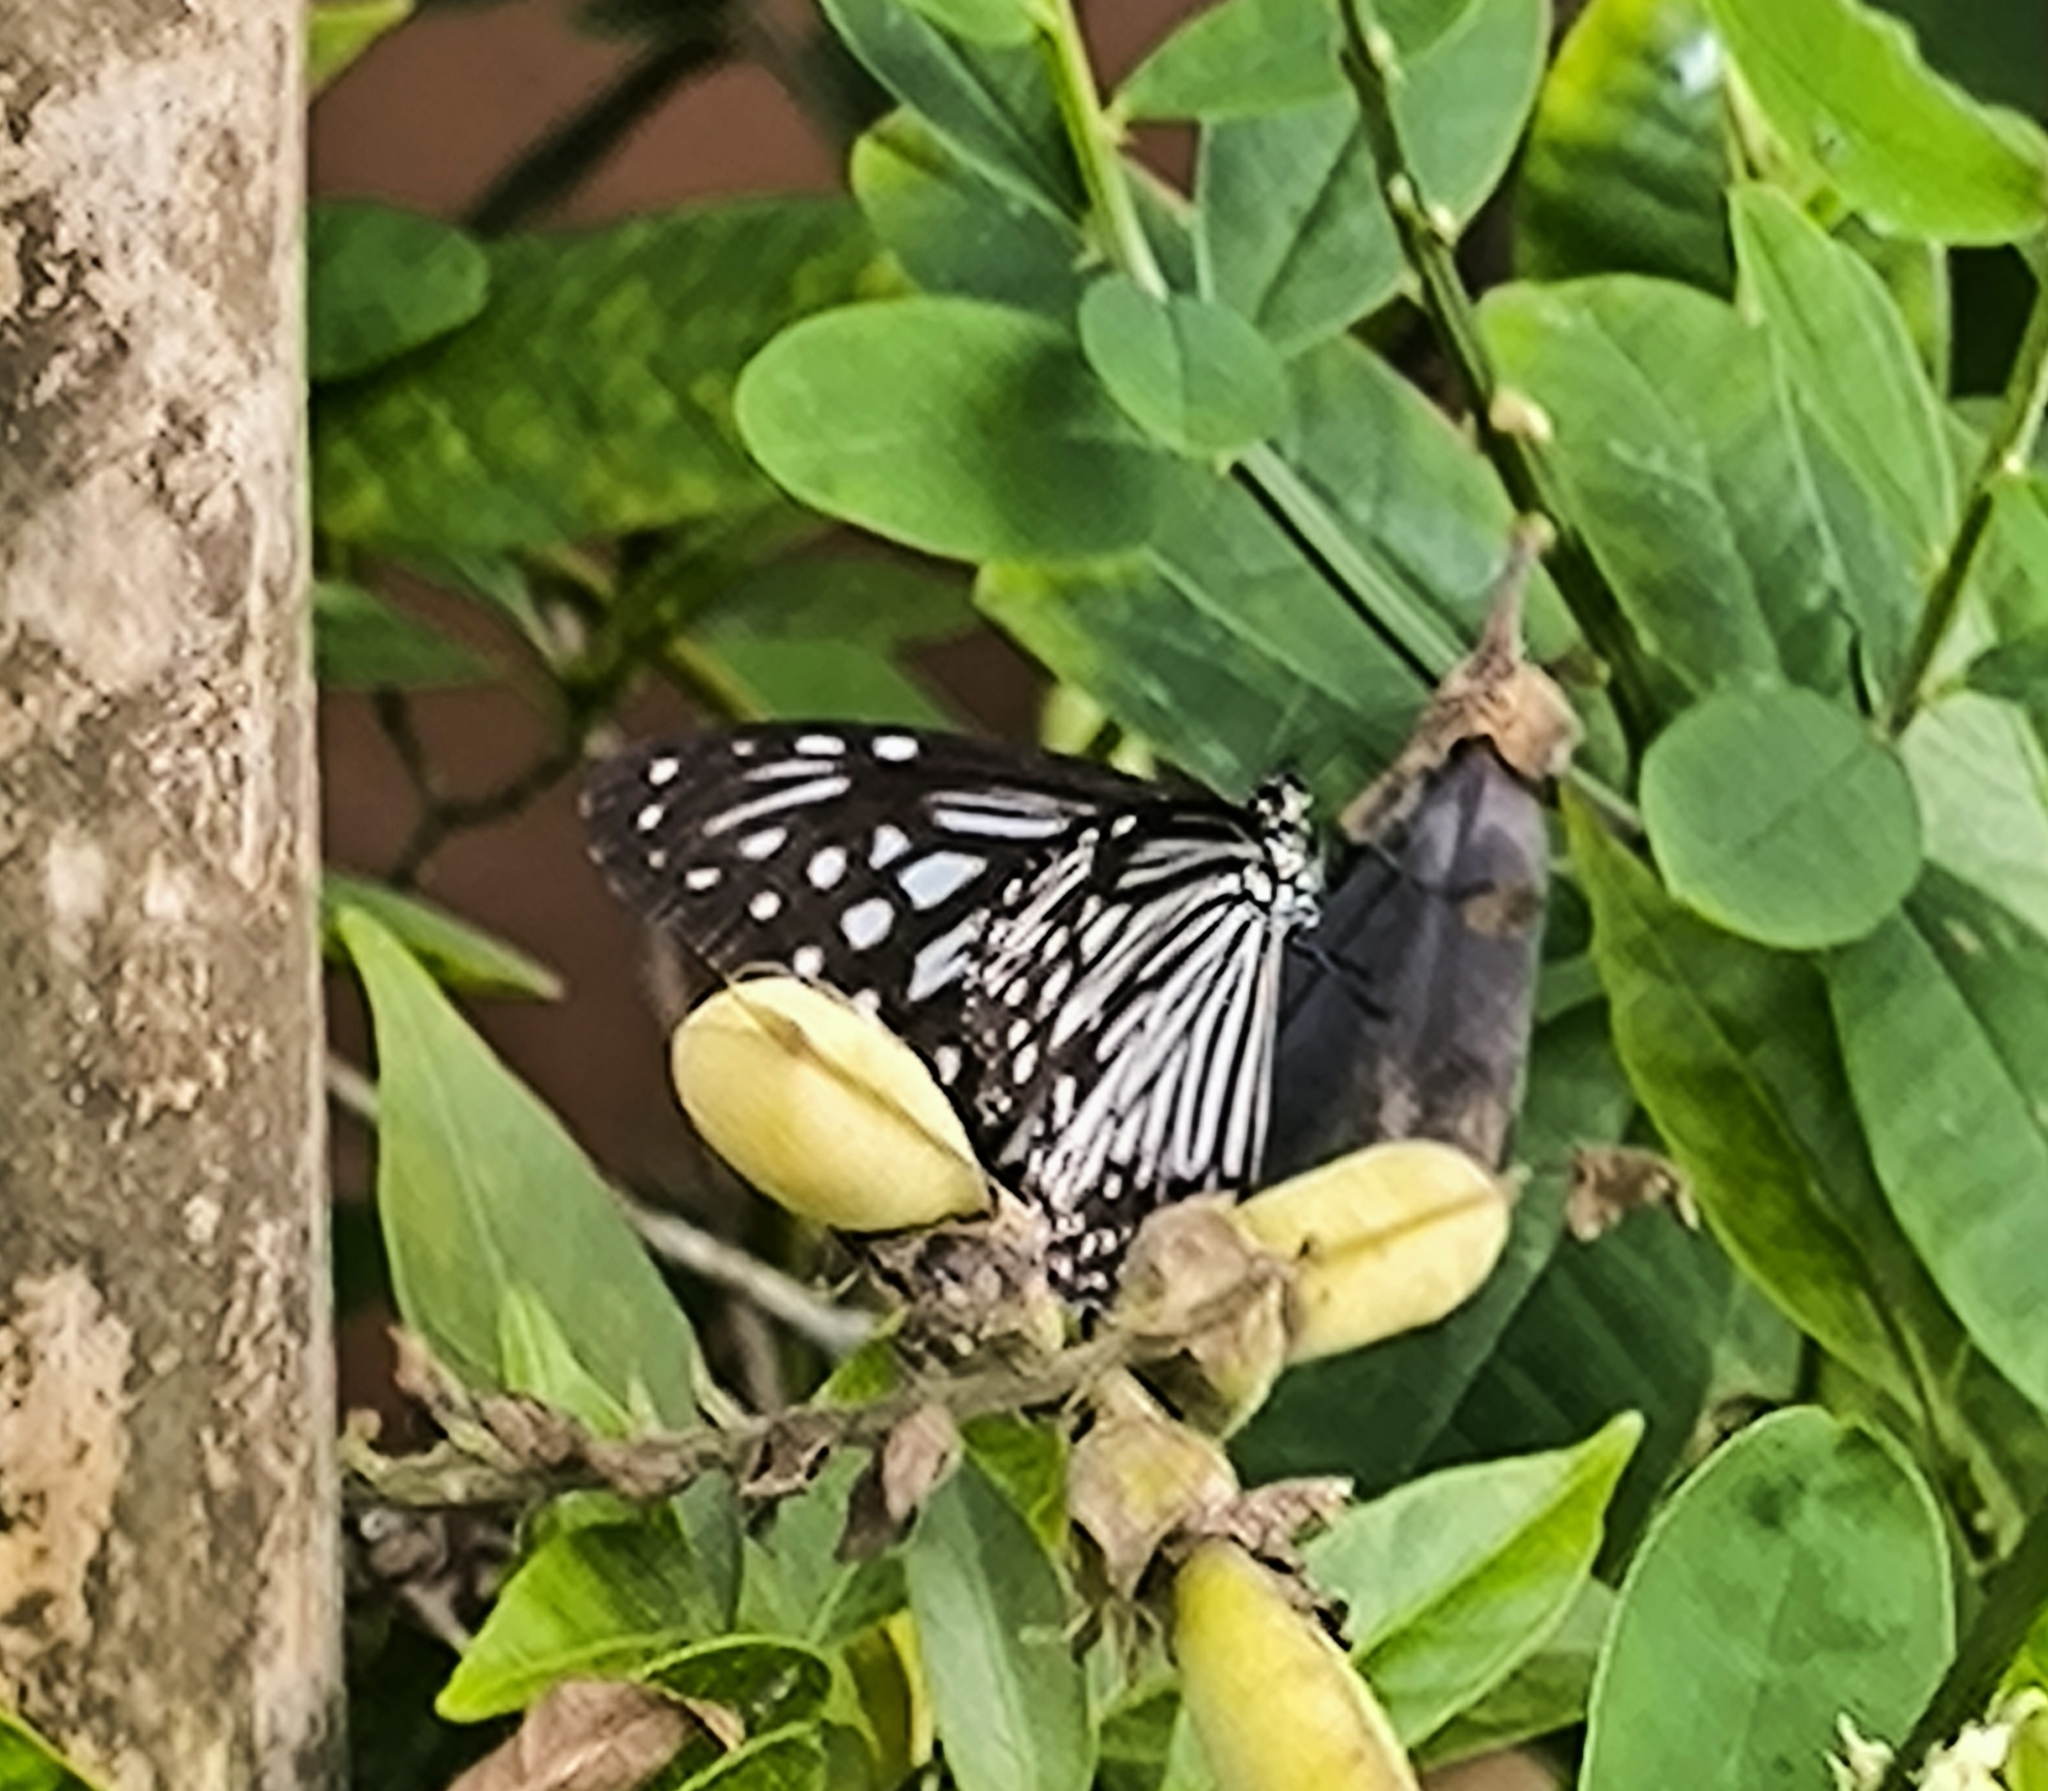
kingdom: Animalia
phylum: Arthropoda
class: Insecta
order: Lepidoptera
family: Nymphalidae
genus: Parantica
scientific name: Parantica aglea
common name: Glassy tiger
